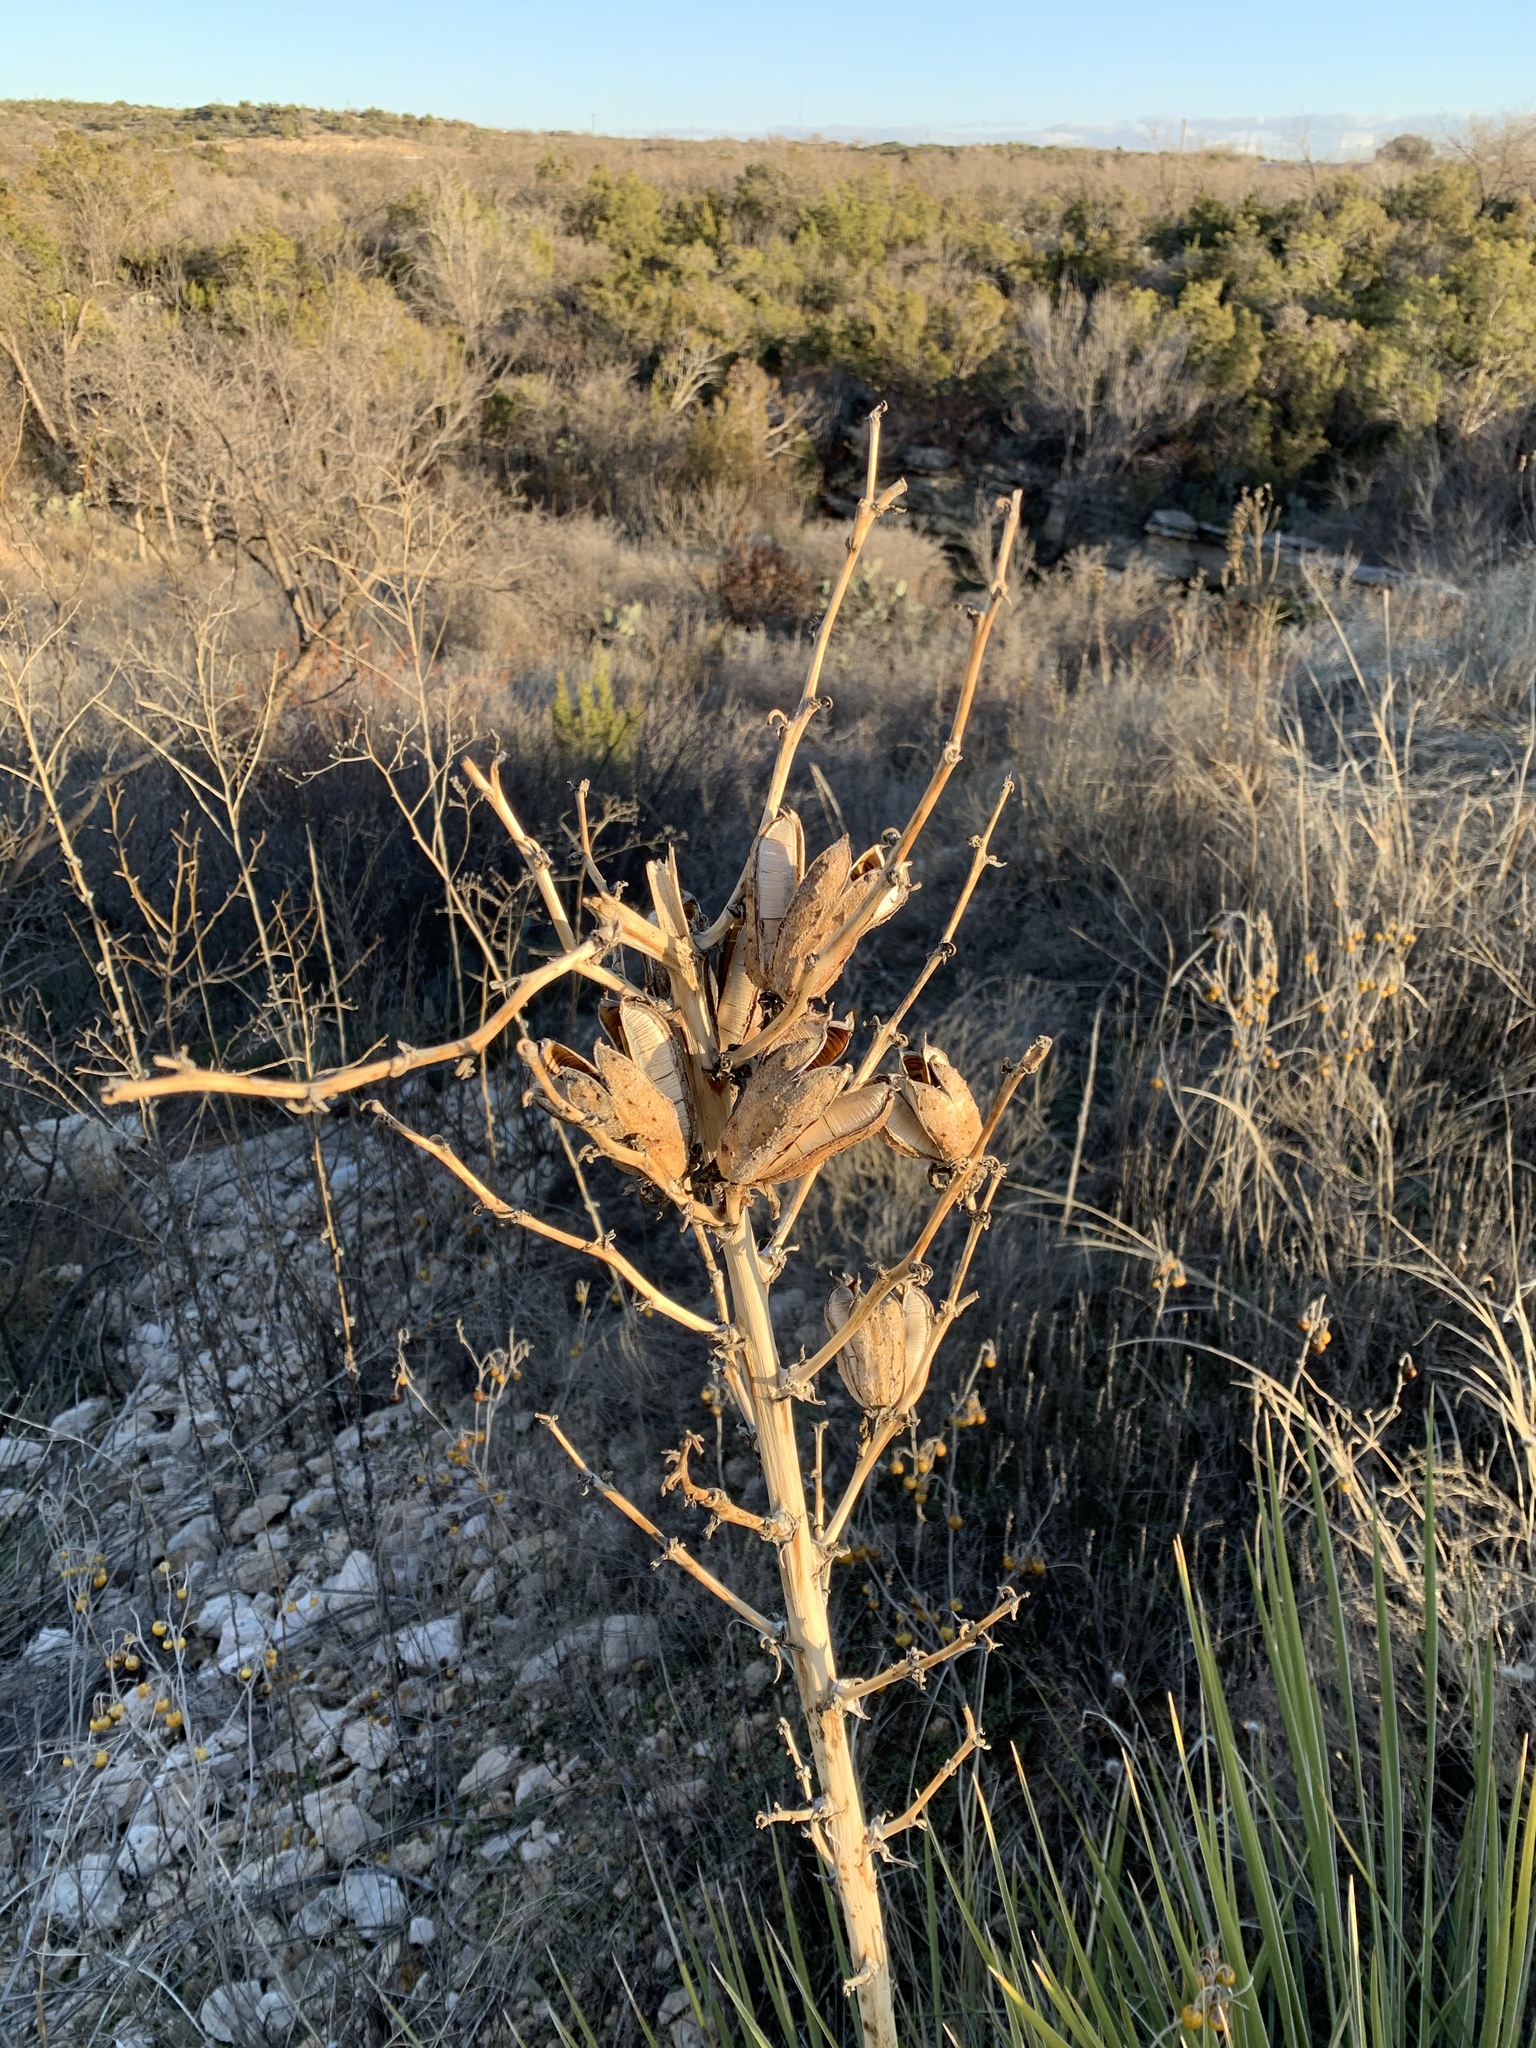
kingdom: Plantae
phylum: Tracheophyta
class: Liliopsida
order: Asparagales
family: Asparagaceae
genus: Yucca
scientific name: Yucca campestris
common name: Plains yucca
